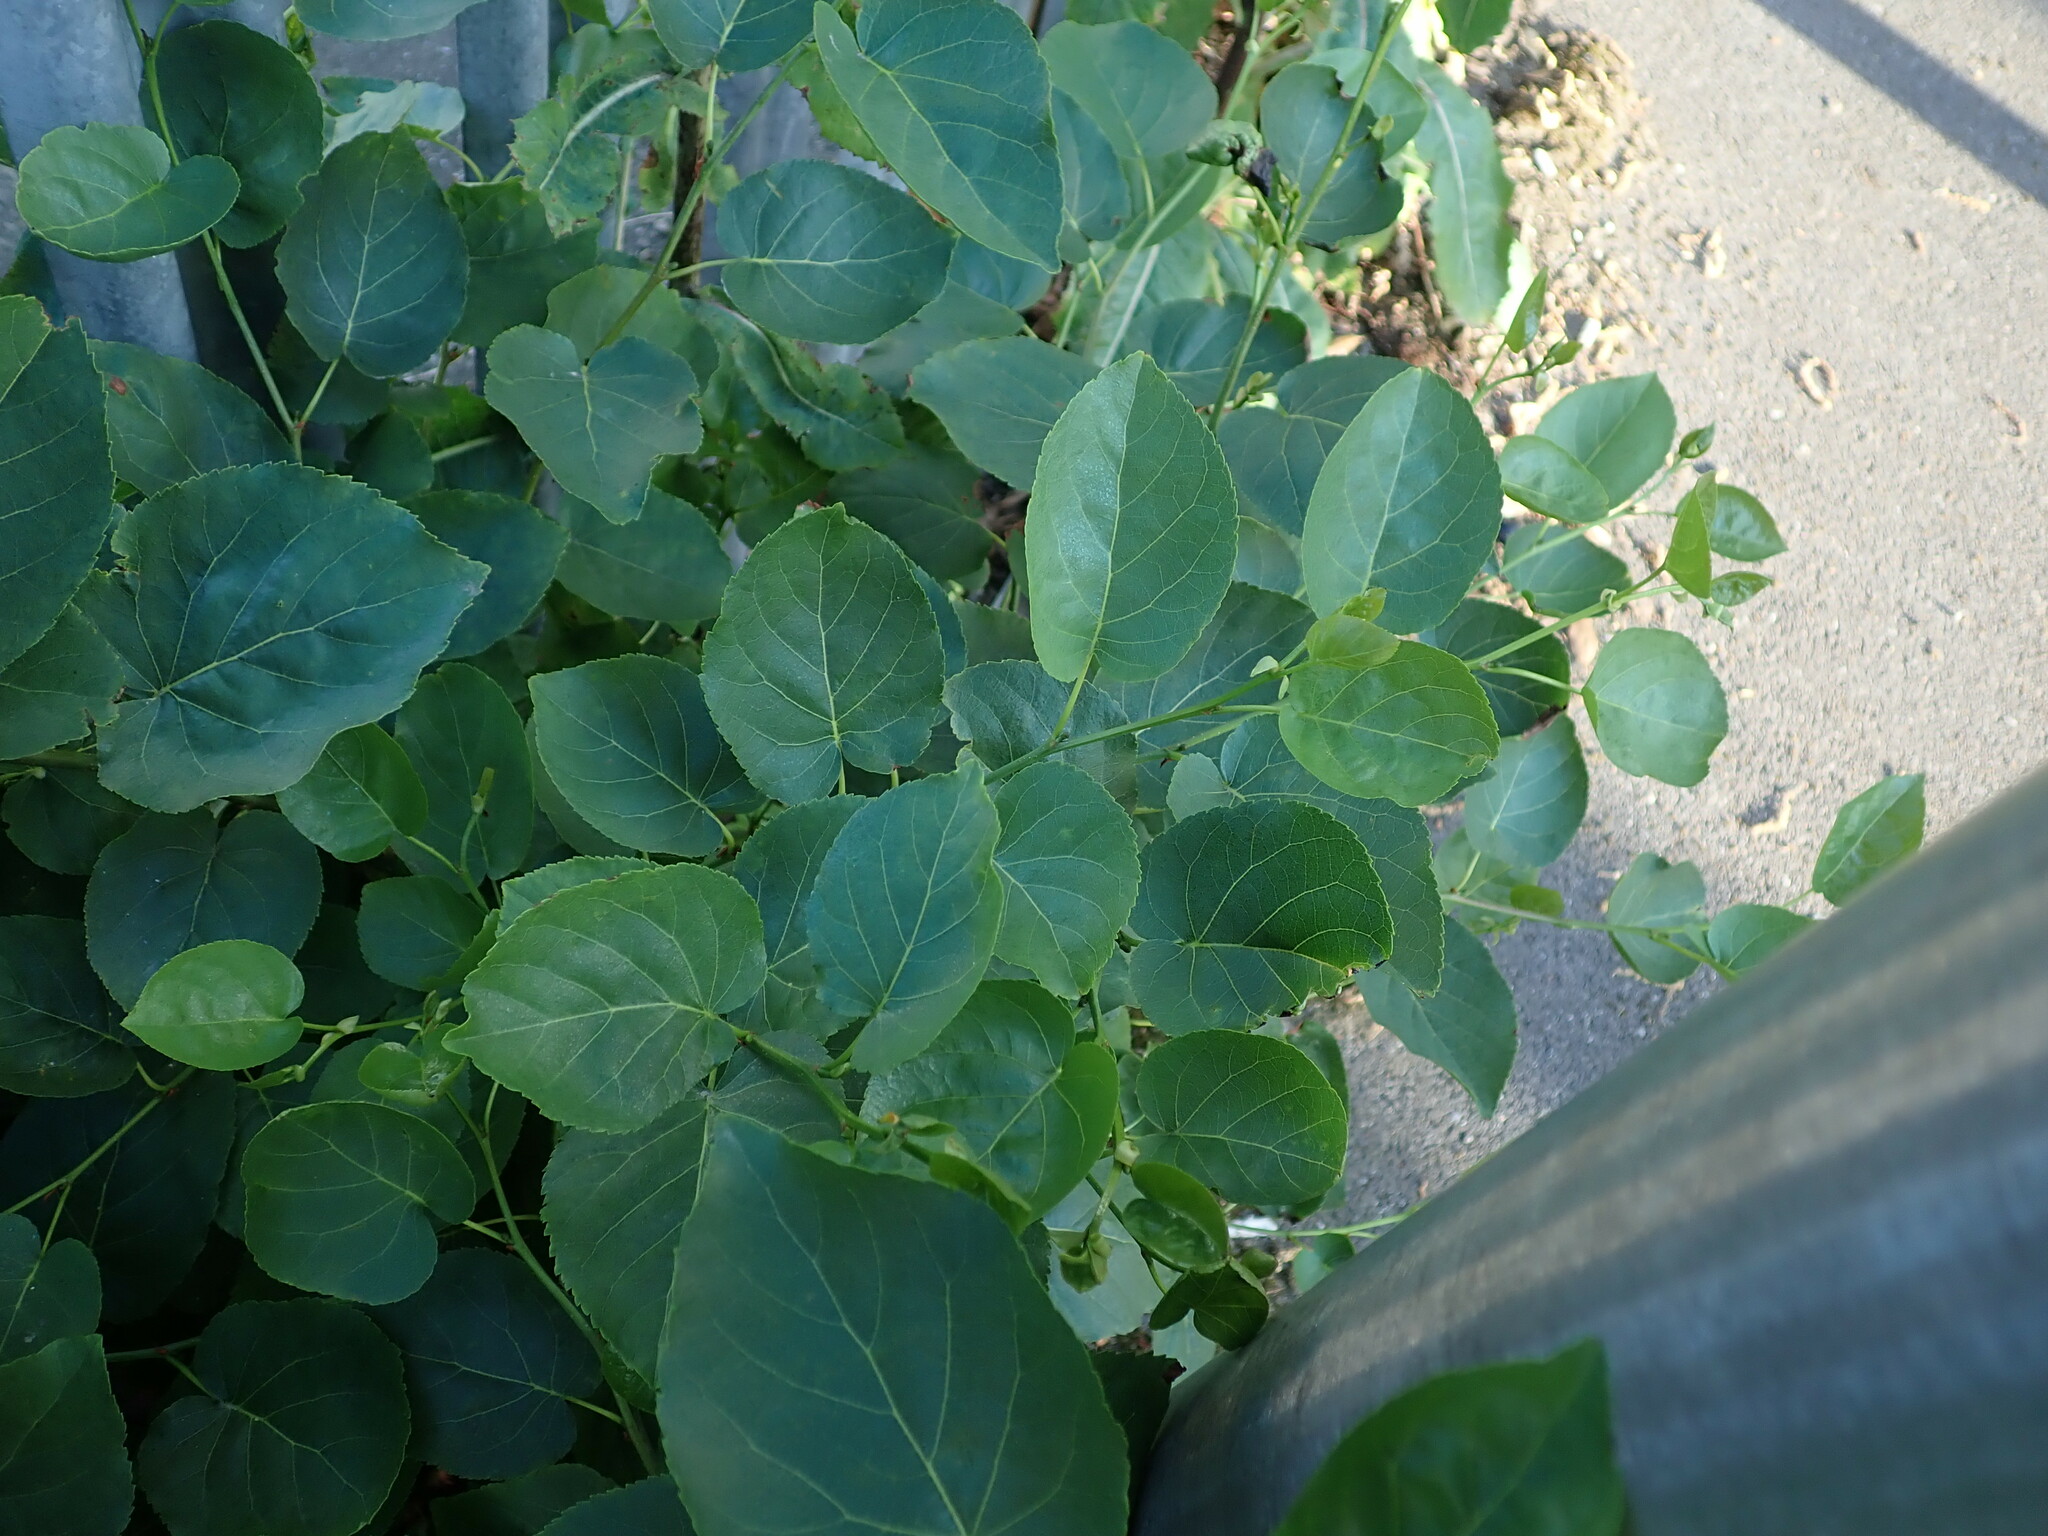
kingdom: Plantae
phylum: Tracheophyta
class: Magnoliopsida
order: Fagales
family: Betulaceae
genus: Alnus
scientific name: Alnus cordata
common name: Italian alder
